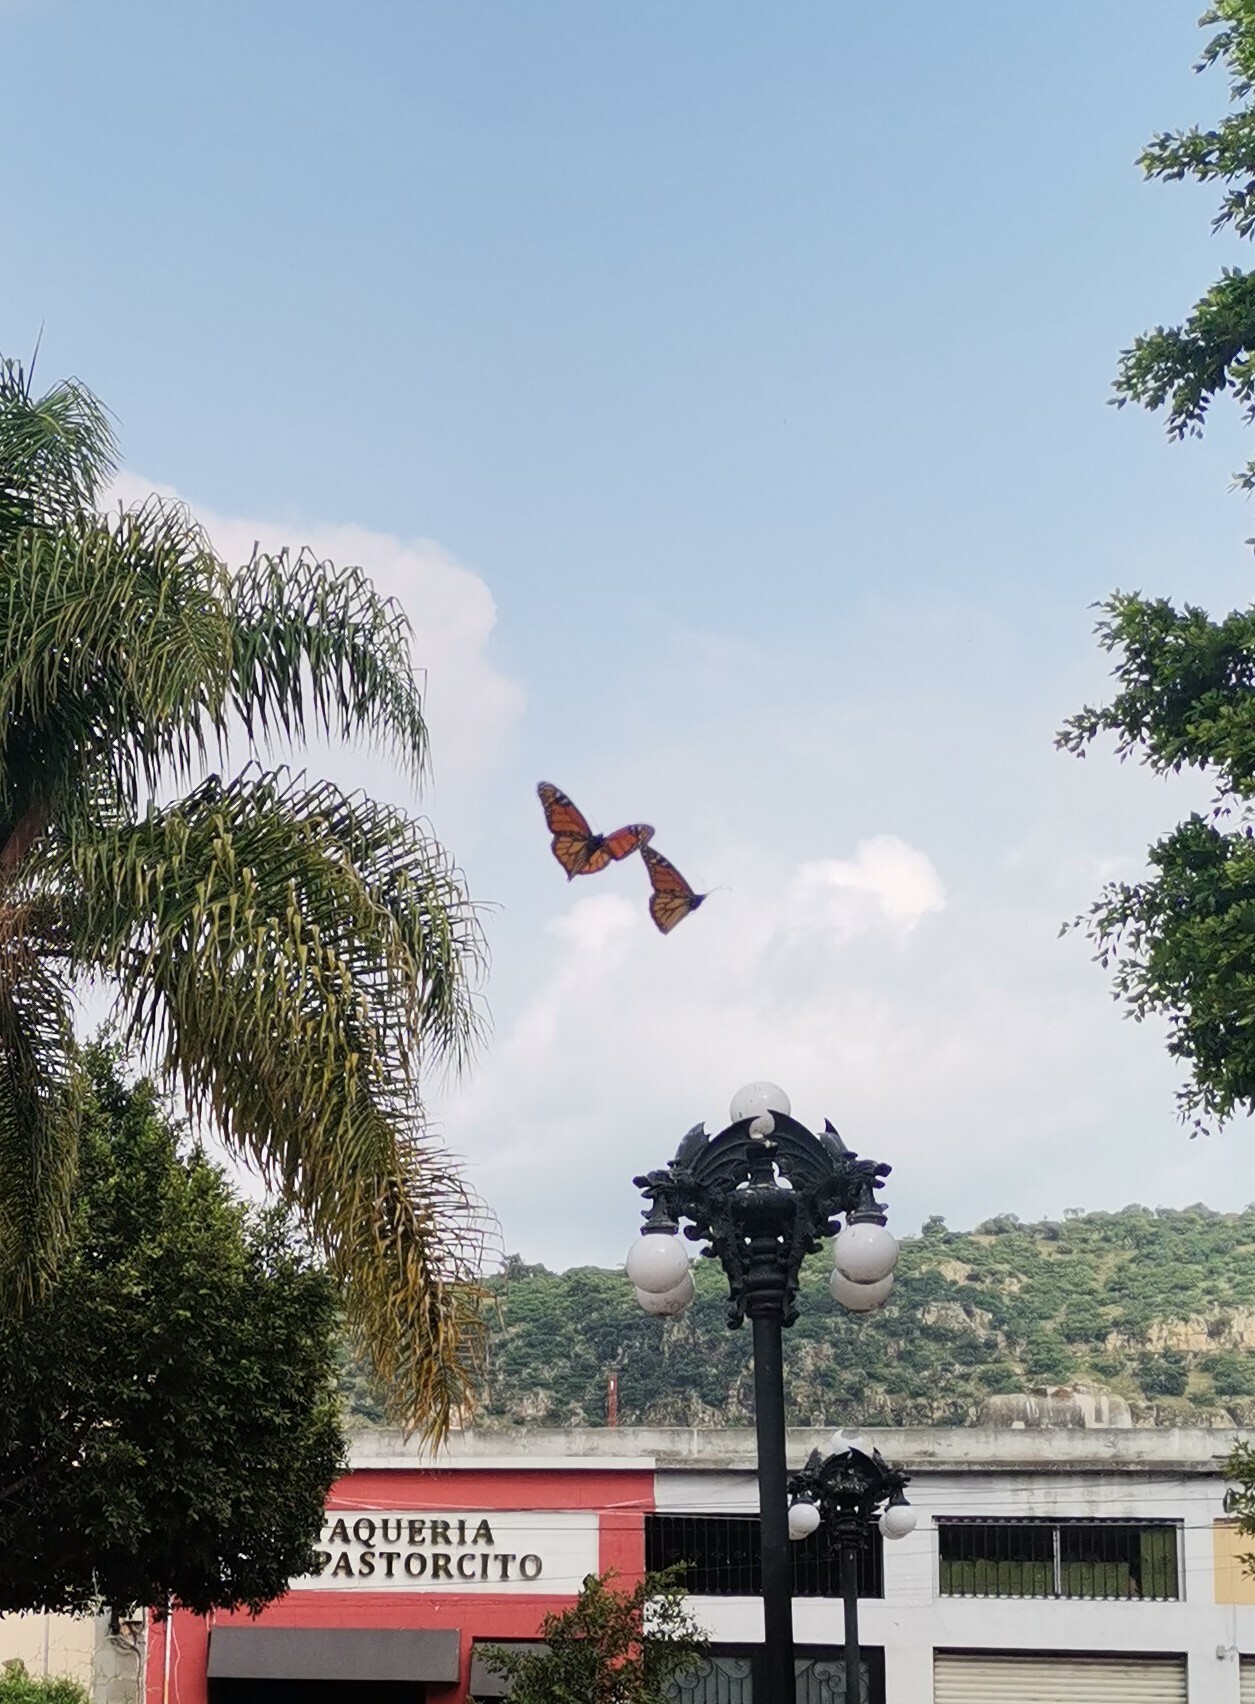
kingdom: Animalia
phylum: Arthropoda
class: Insecta
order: Lepidoptera
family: Nymphalidae
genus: Danaus
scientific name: Danaus plexippus
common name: Monarch
